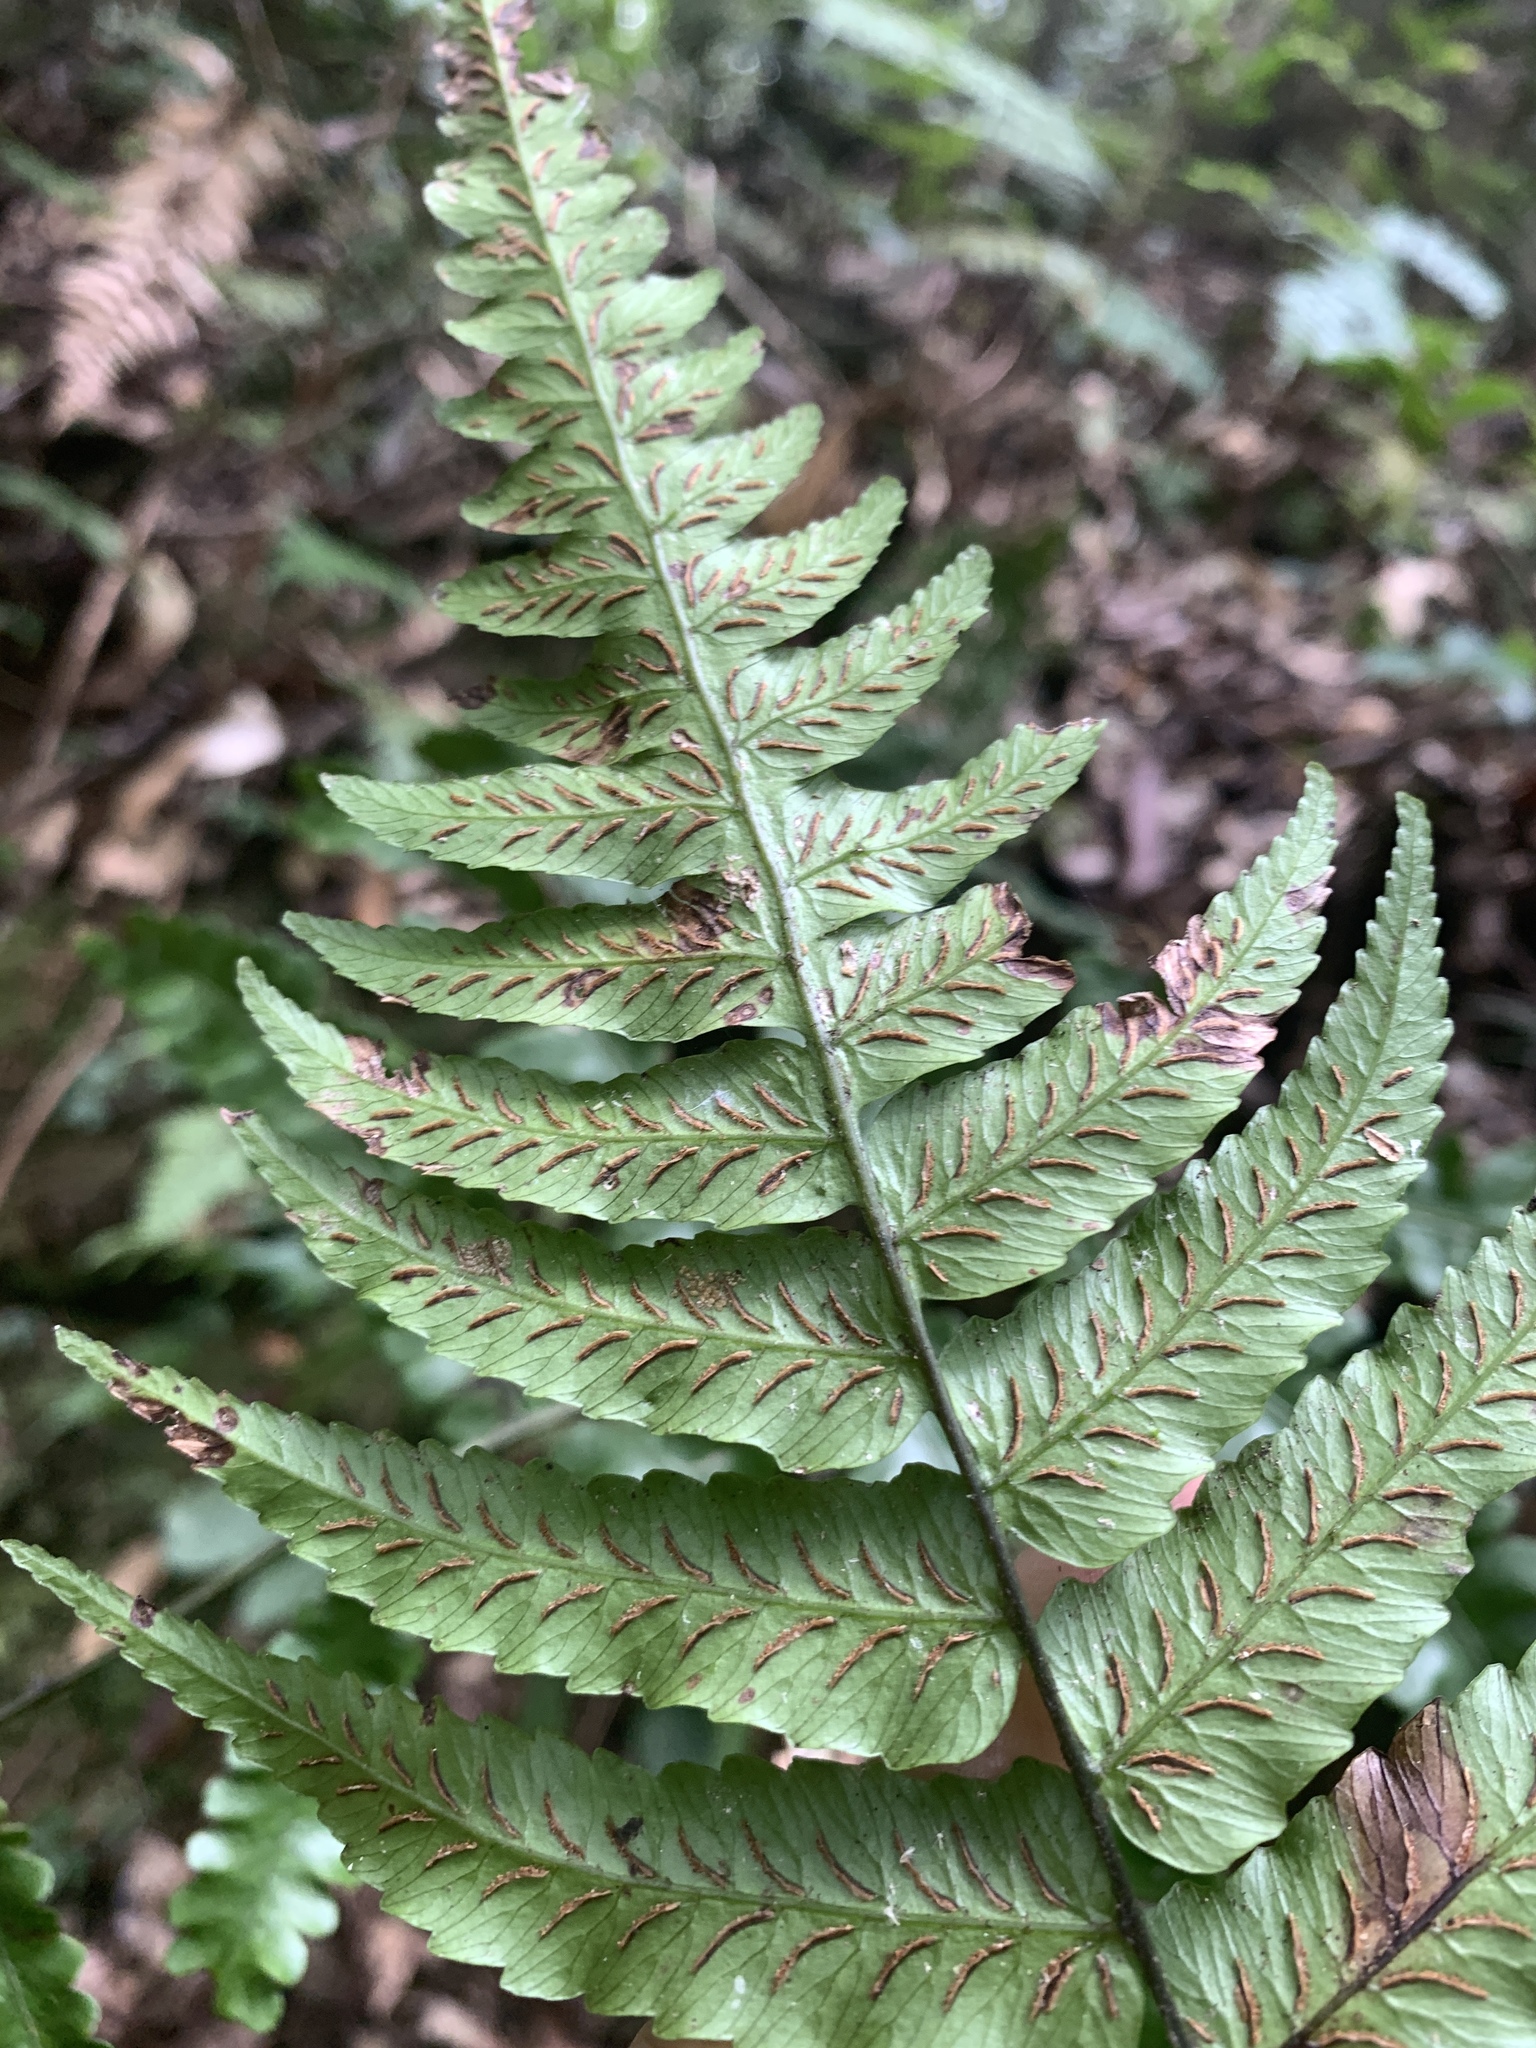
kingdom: Plantae
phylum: Tracheophyta
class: Polypodiopsida
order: Polypodiales
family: Athyriaceae
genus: Diplazium
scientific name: Diplazium mettenianum
